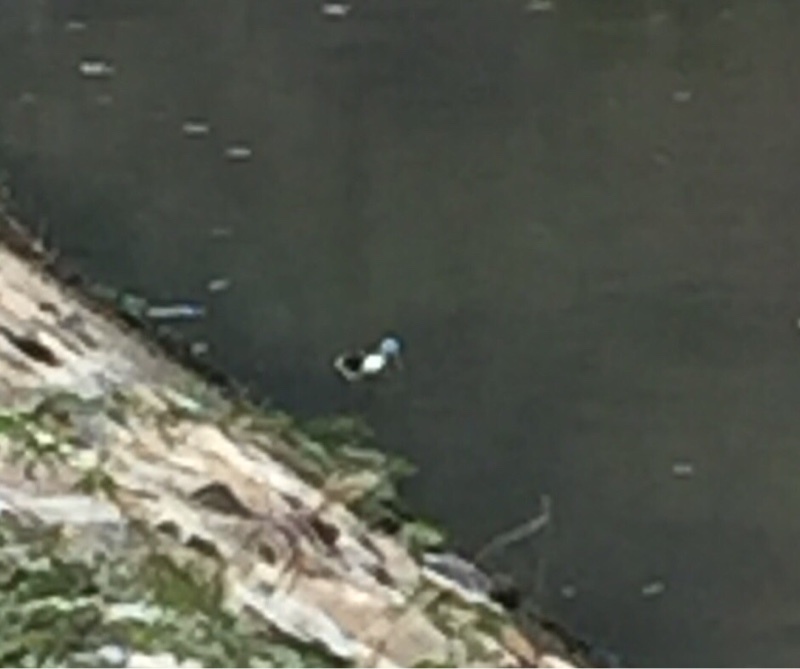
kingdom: Animalia
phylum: Chordata
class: Aves
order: Charadriiformes
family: Recurvirostridae
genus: Himantopus
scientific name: Himantopus himantopus
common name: Black-winged stilt
